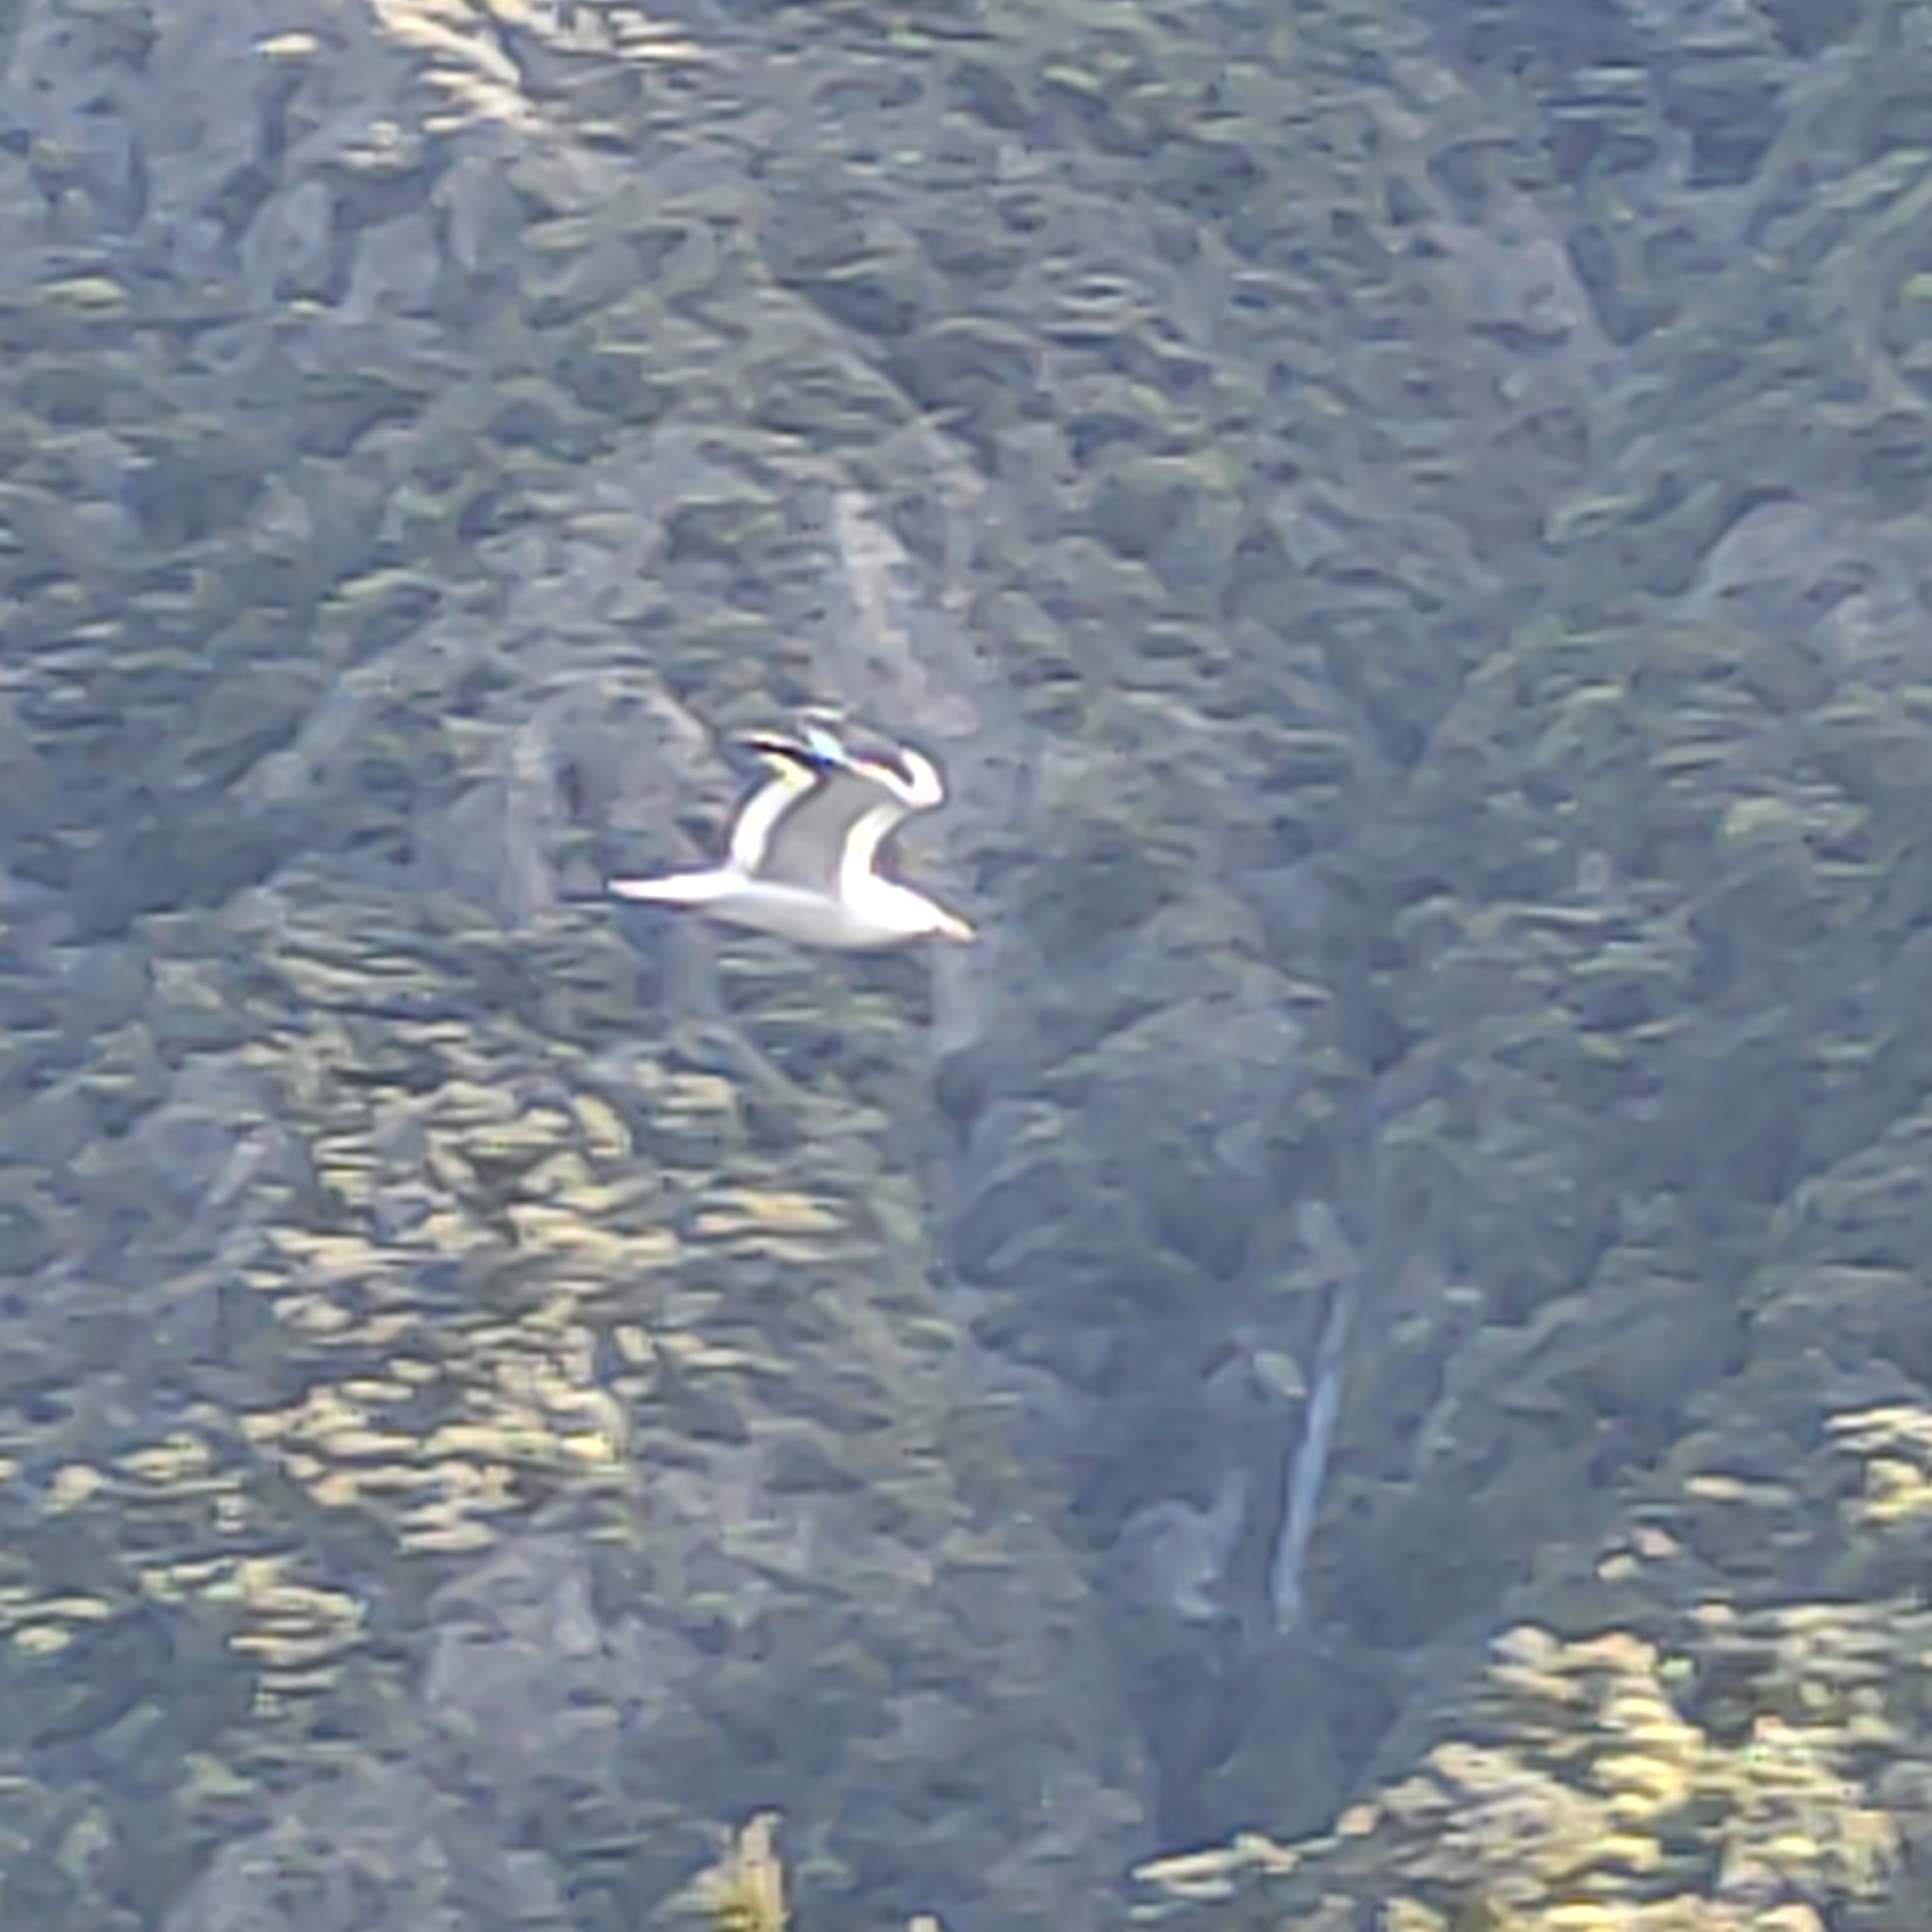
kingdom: Animalia
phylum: Chordata
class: Aves
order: Charadriiformes
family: Laridae
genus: Larus
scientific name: Larus dominicanus
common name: Kelp gull
